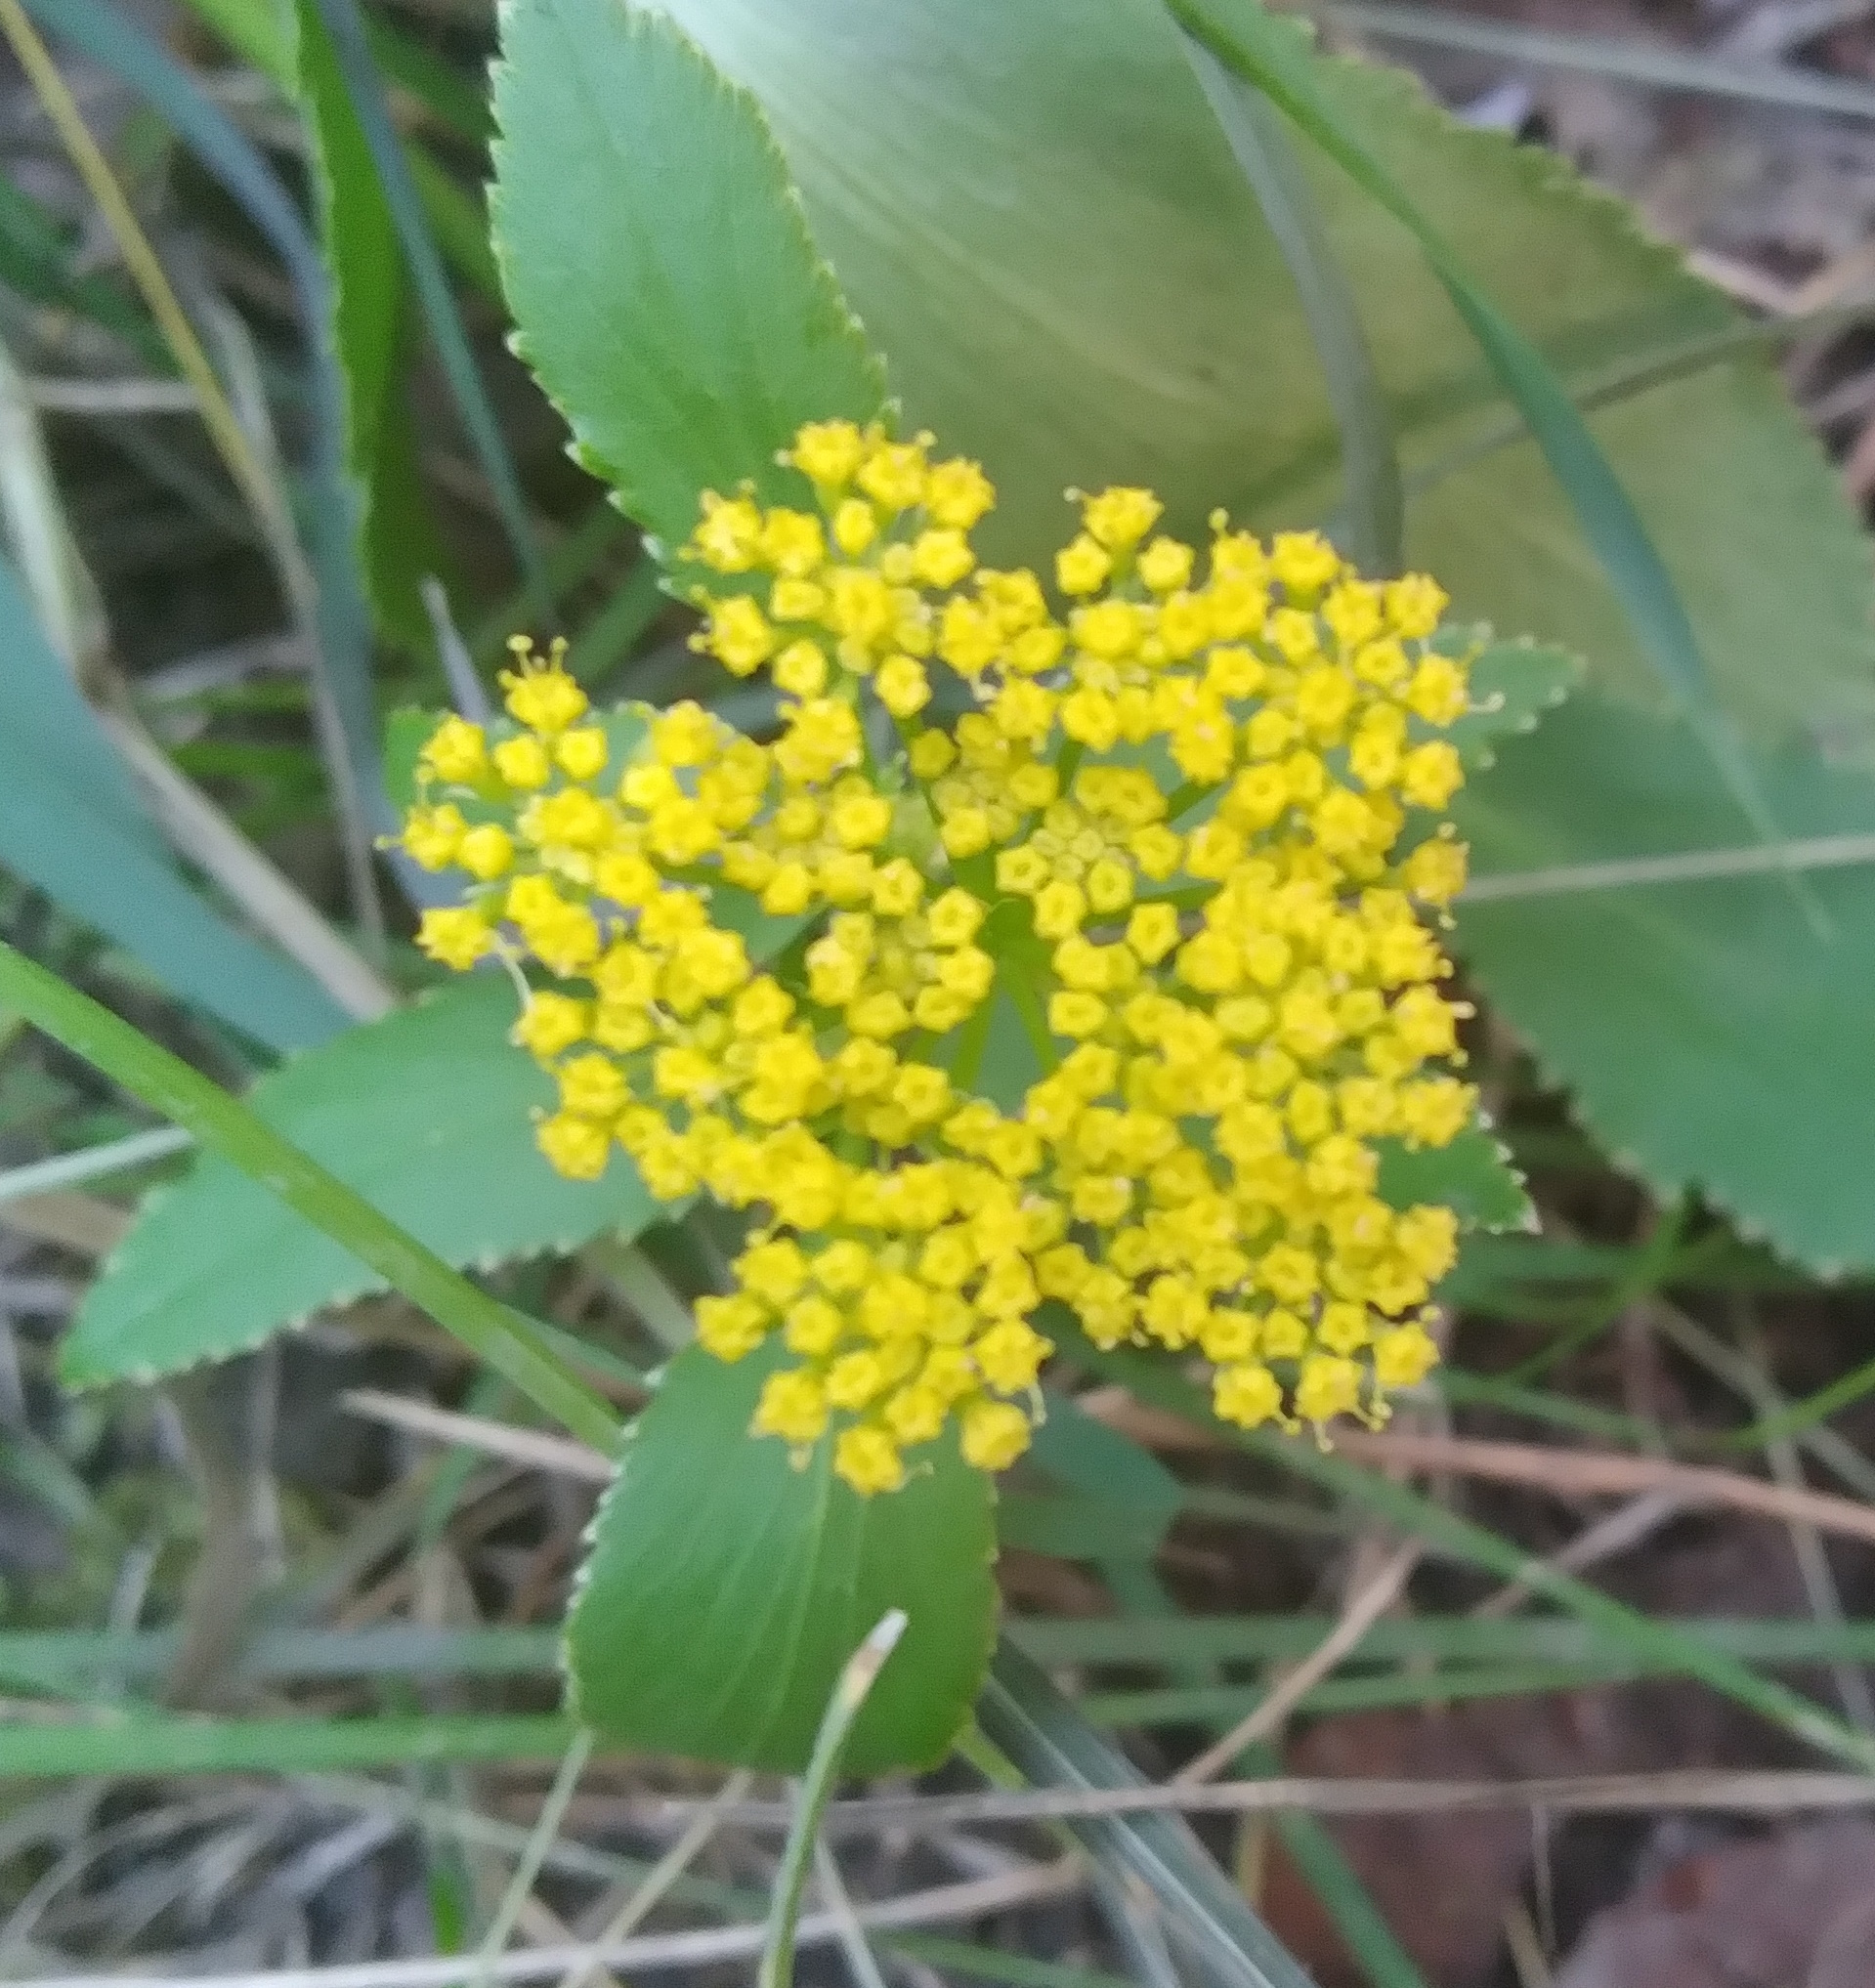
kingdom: Plantae
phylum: Tracheophyta
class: Magnoliopsida
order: Apiales
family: Apiaceae
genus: Zizia
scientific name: Zizia aptera
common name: Heart-leaved alexanders
